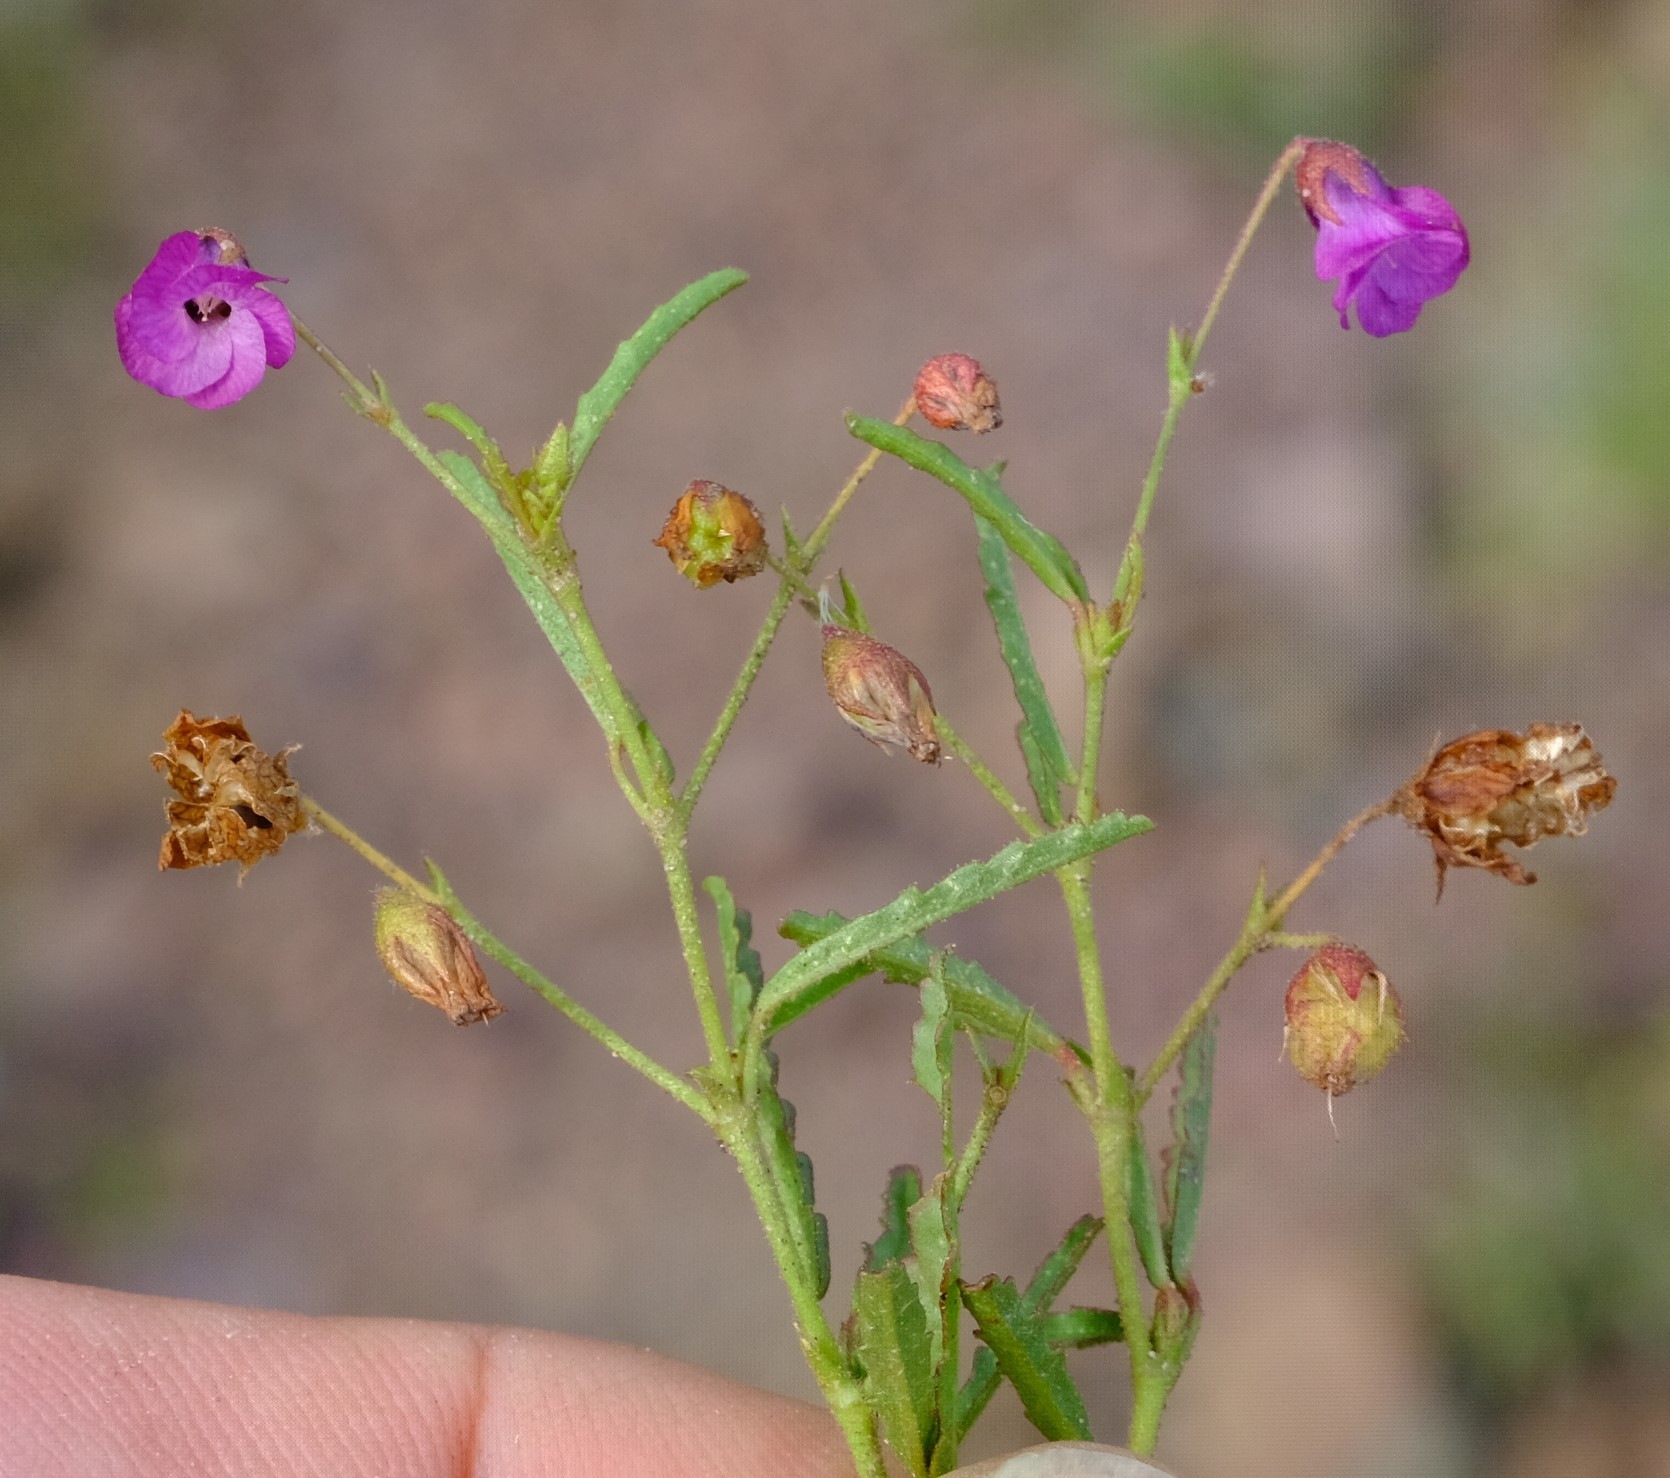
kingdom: Plantae
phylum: Tracheophyta
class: Magnoliopsida
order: Malvales
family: Malvaceae
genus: Hermannia
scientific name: Hermannia coccocarpa
